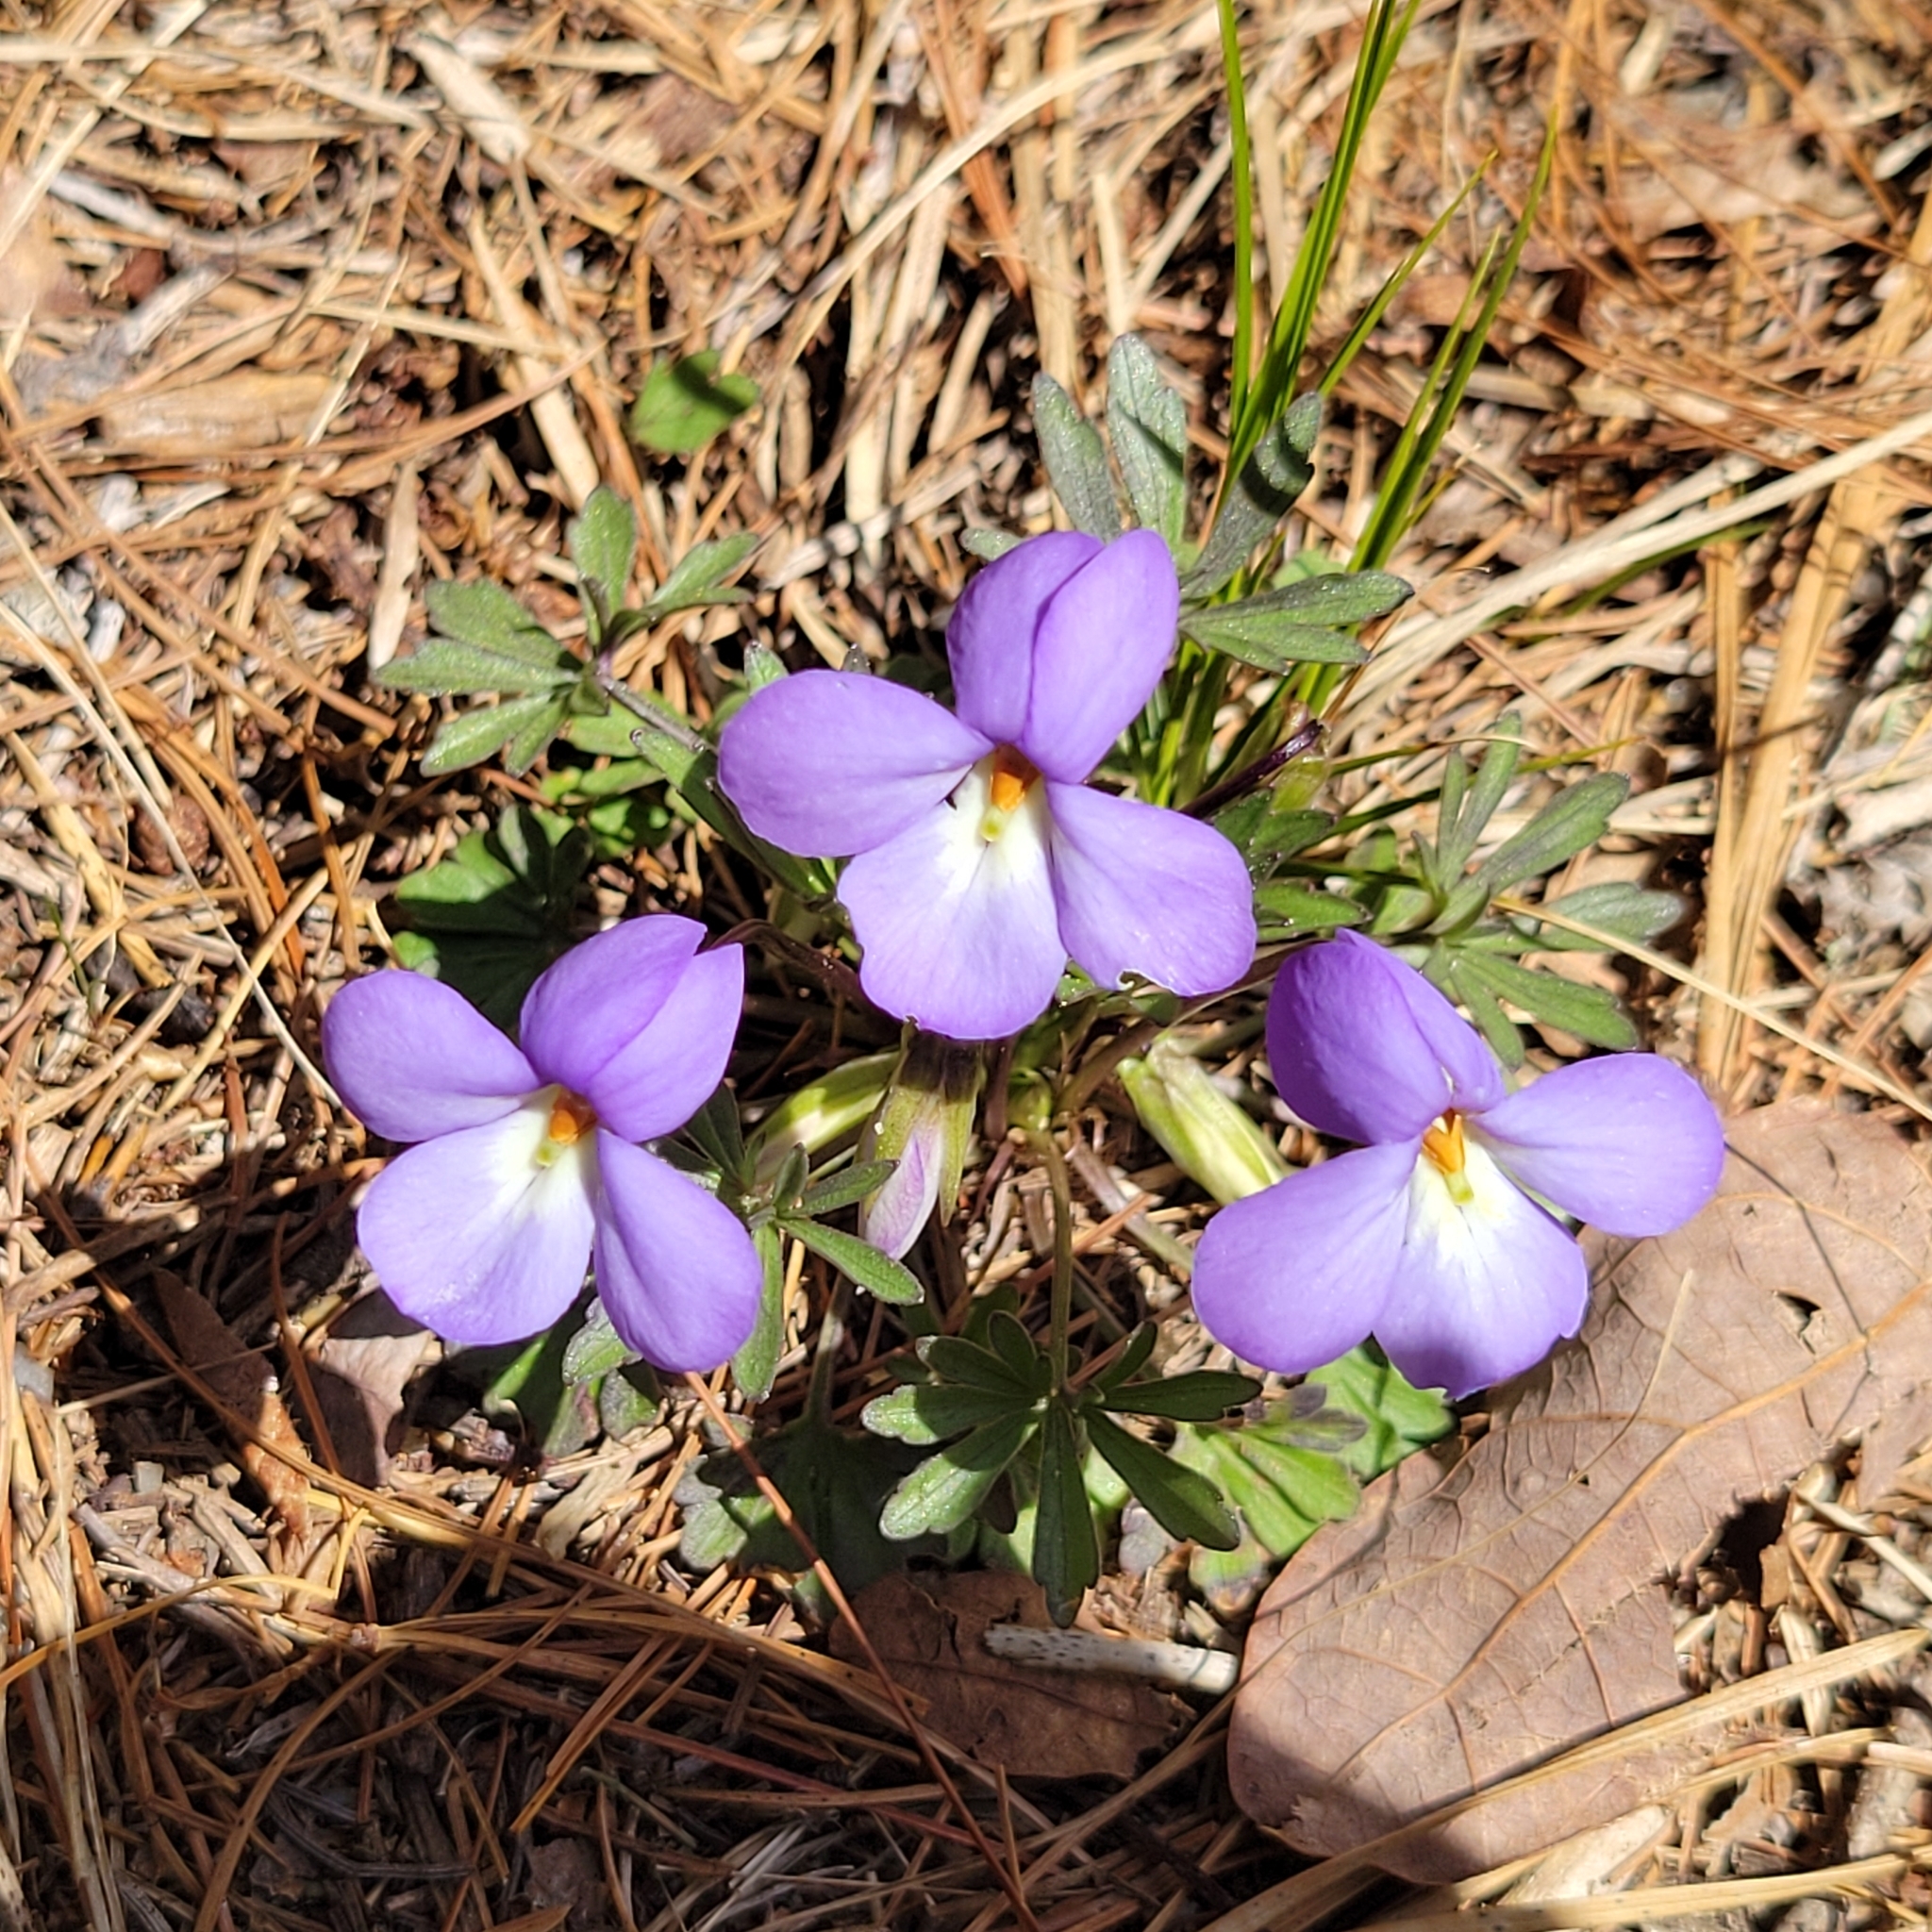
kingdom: Plantae
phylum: Tracheophyta
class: Magnoliopsida
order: Malpighiales
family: Violaceae
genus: Viola
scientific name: Viola pedata
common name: Pansy violet
